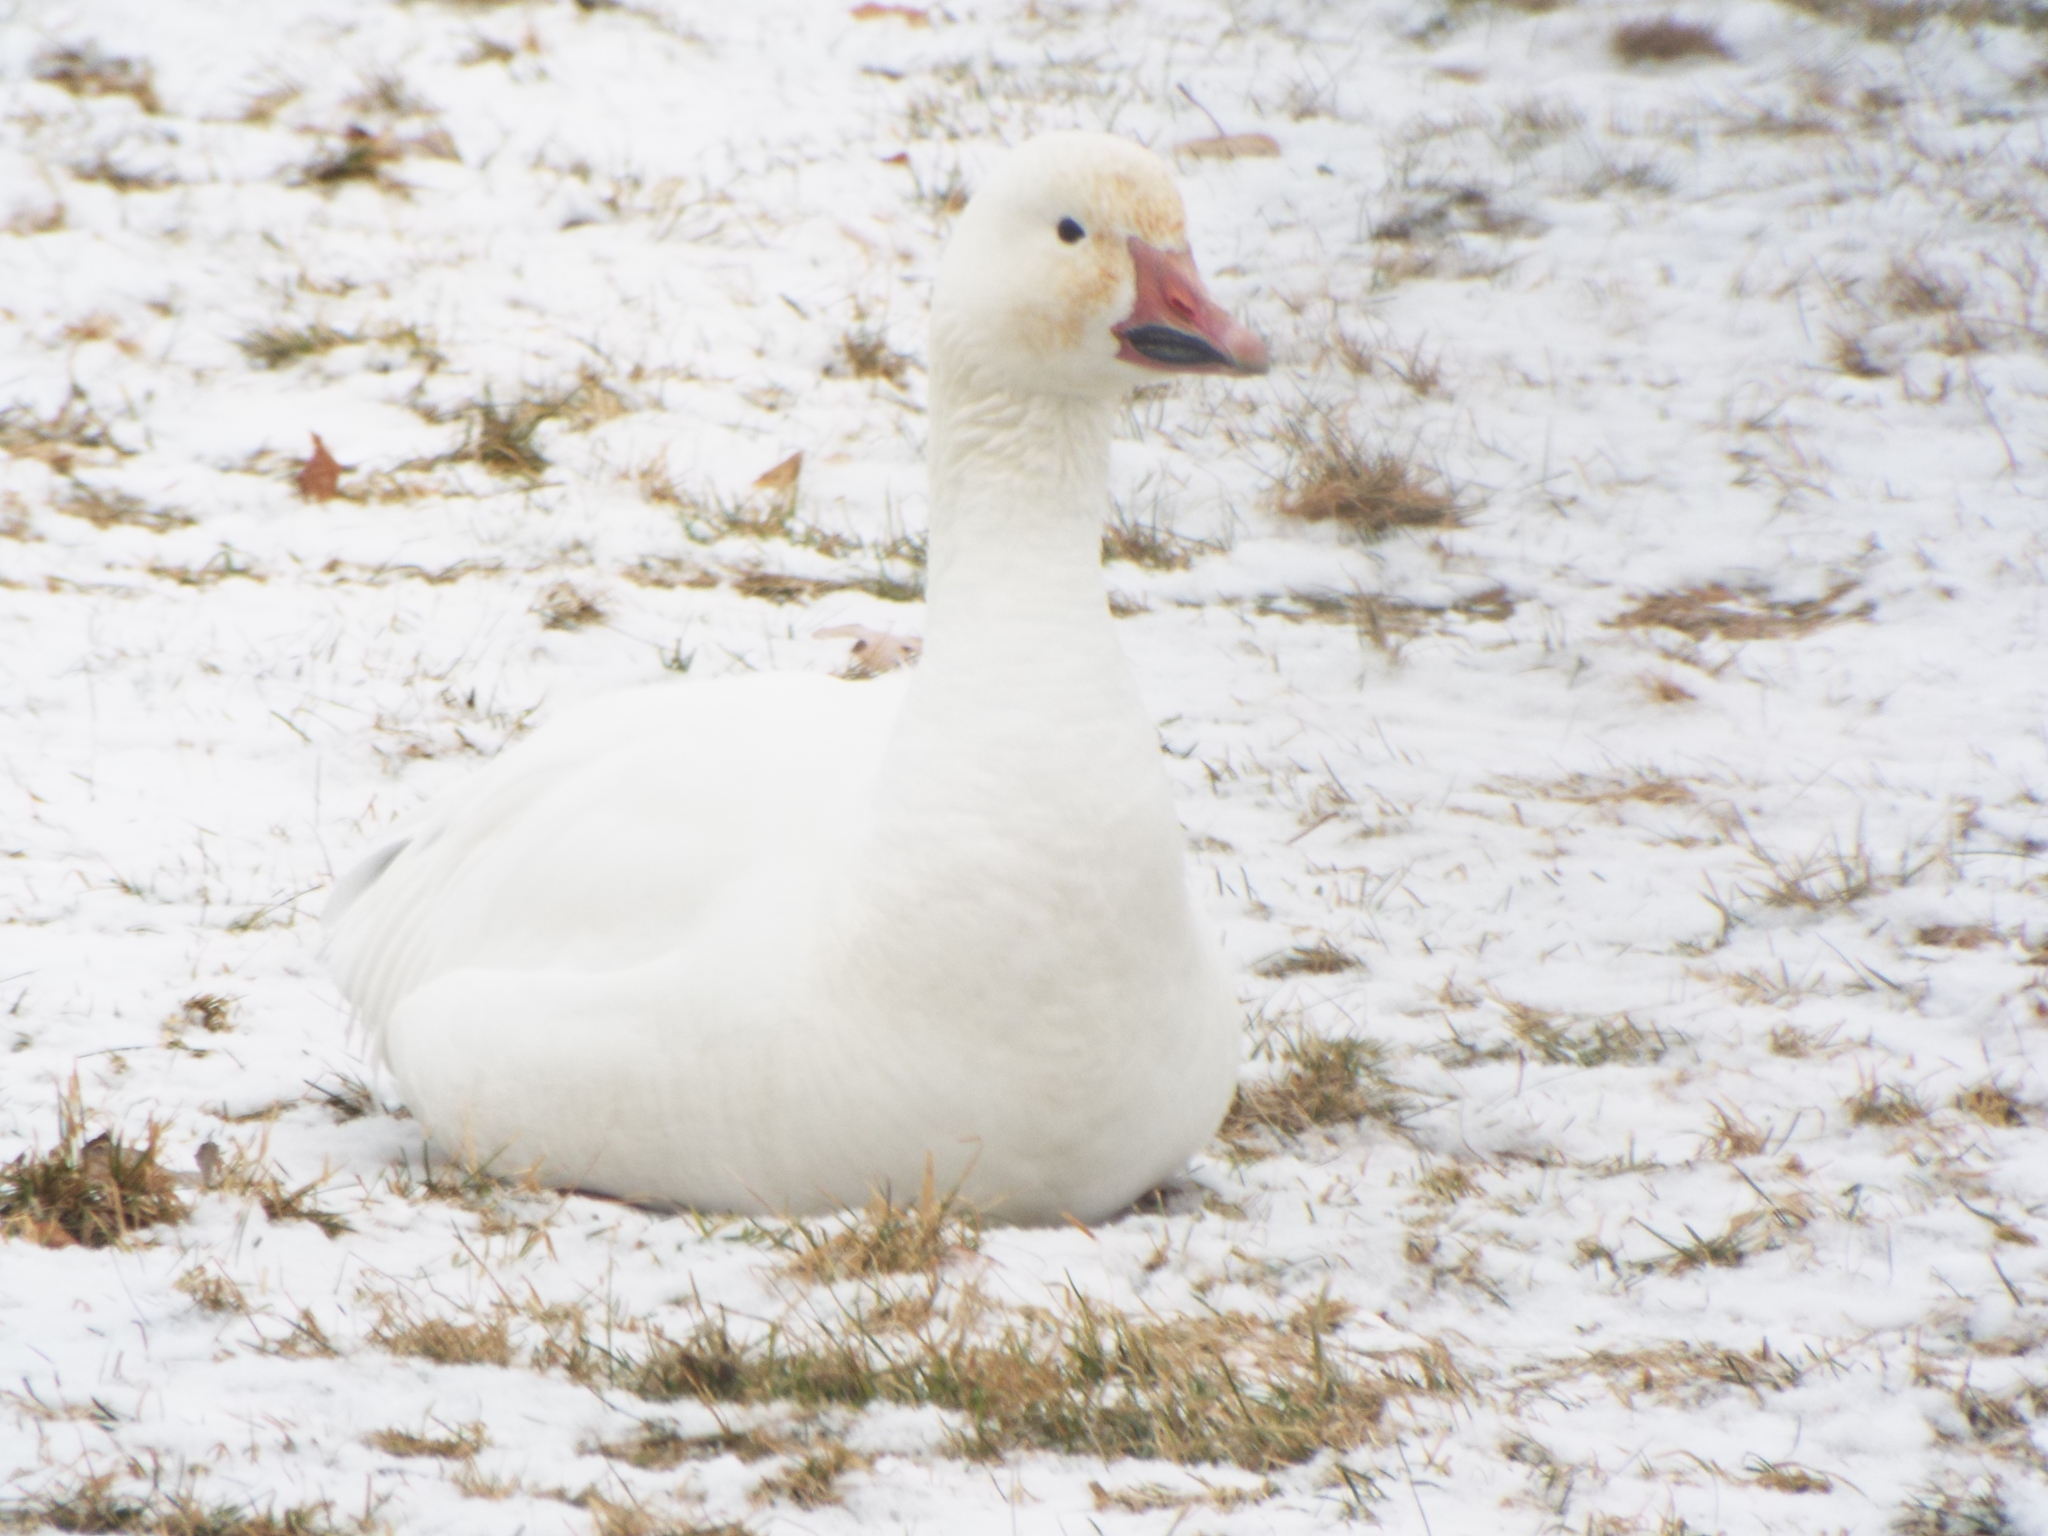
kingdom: Animalia
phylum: Chordata
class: Aves
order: Anseriformes
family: Anatidae
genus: Anser
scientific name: Anser caerulescens
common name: Snow goose
